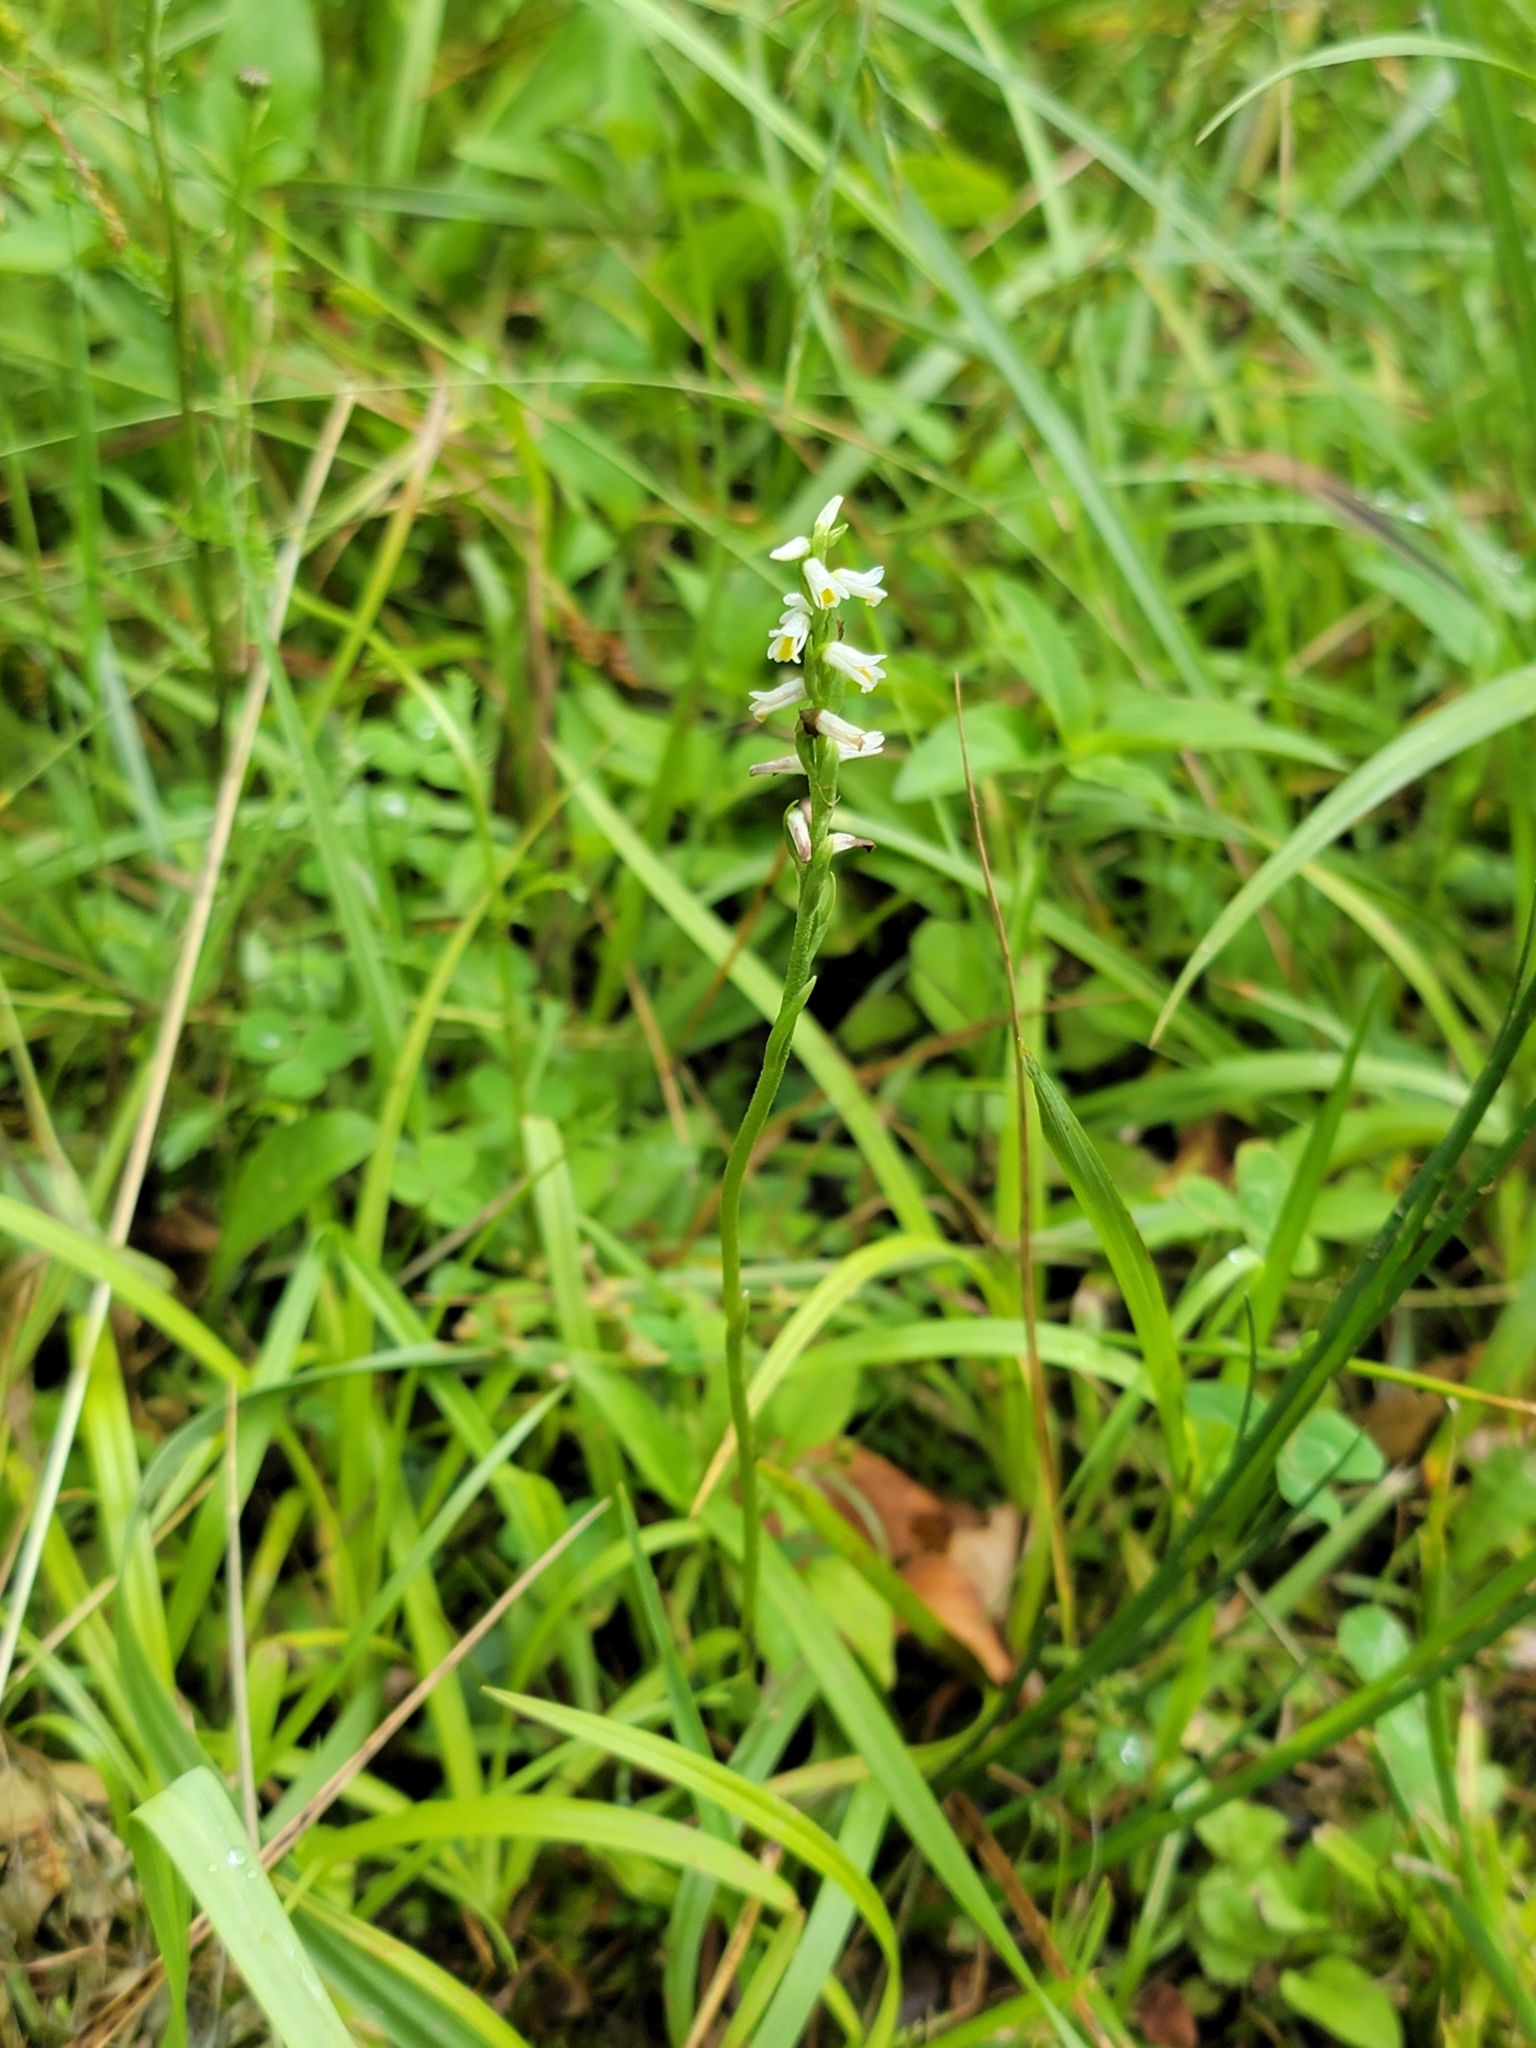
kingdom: Plantae
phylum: Tracheophyta
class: Liliopsida
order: Asparagales
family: Orchidaceae
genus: Spiranthes
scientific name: Spiranthes lucida
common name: Broad-leaved ladies'-tresses
